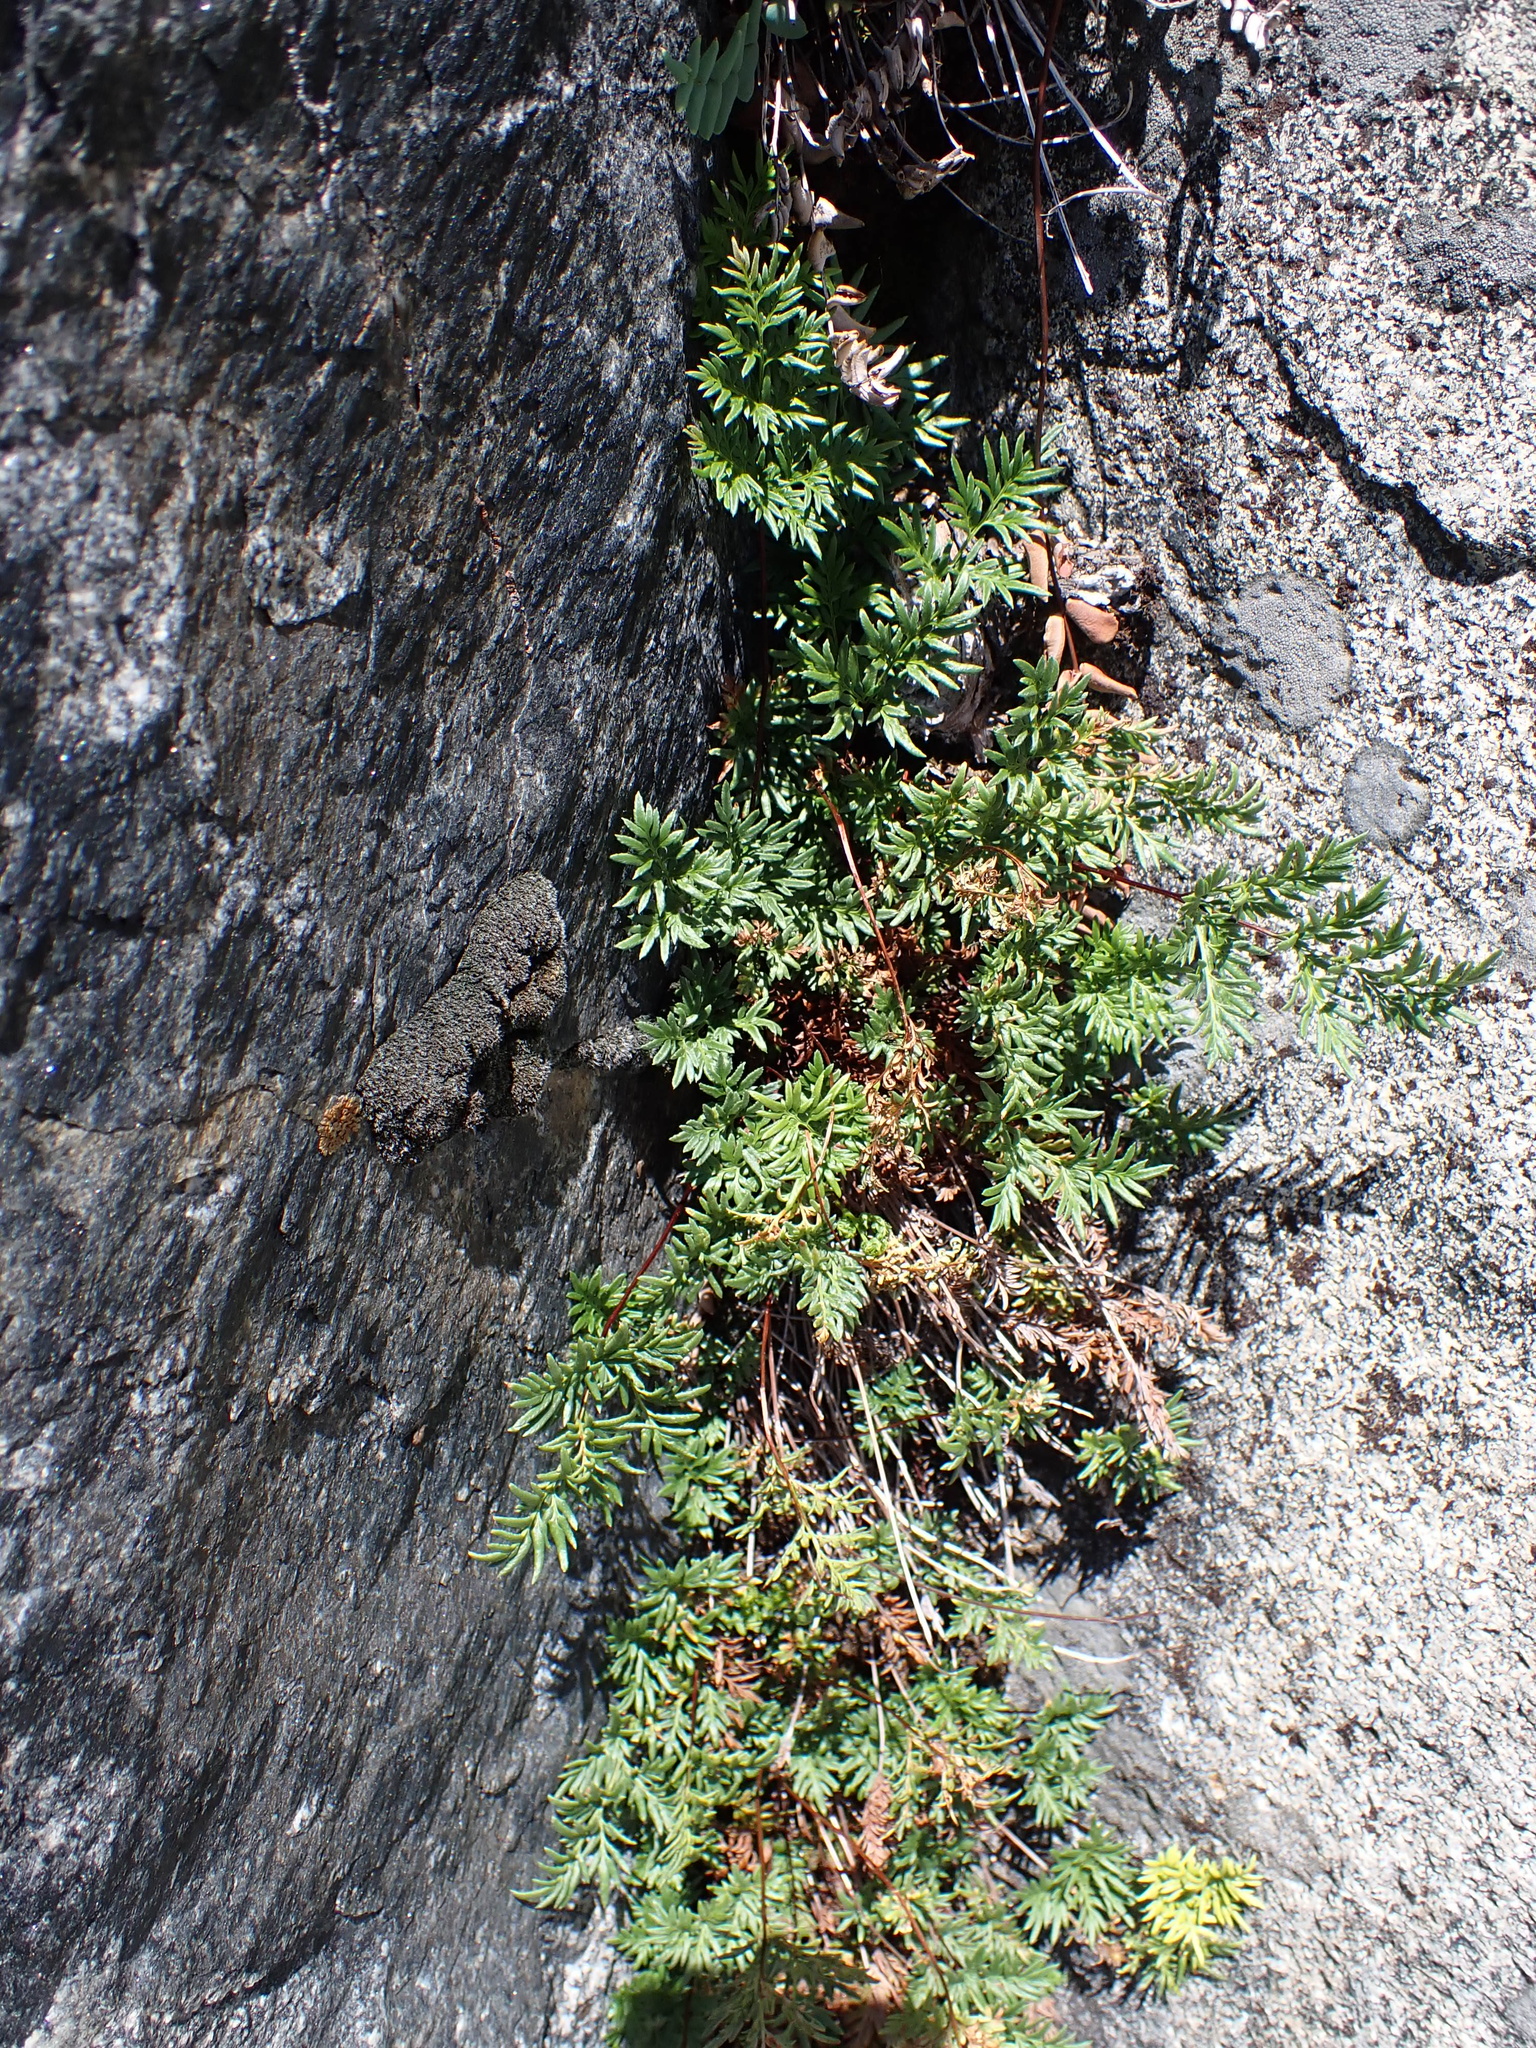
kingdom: Plantae
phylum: Tracheophyta
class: Polypodiopsida
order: Polypodiales
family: Pteridaceae
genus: Aspidotis
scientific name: Aspidotis densa
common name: Indian's dream
